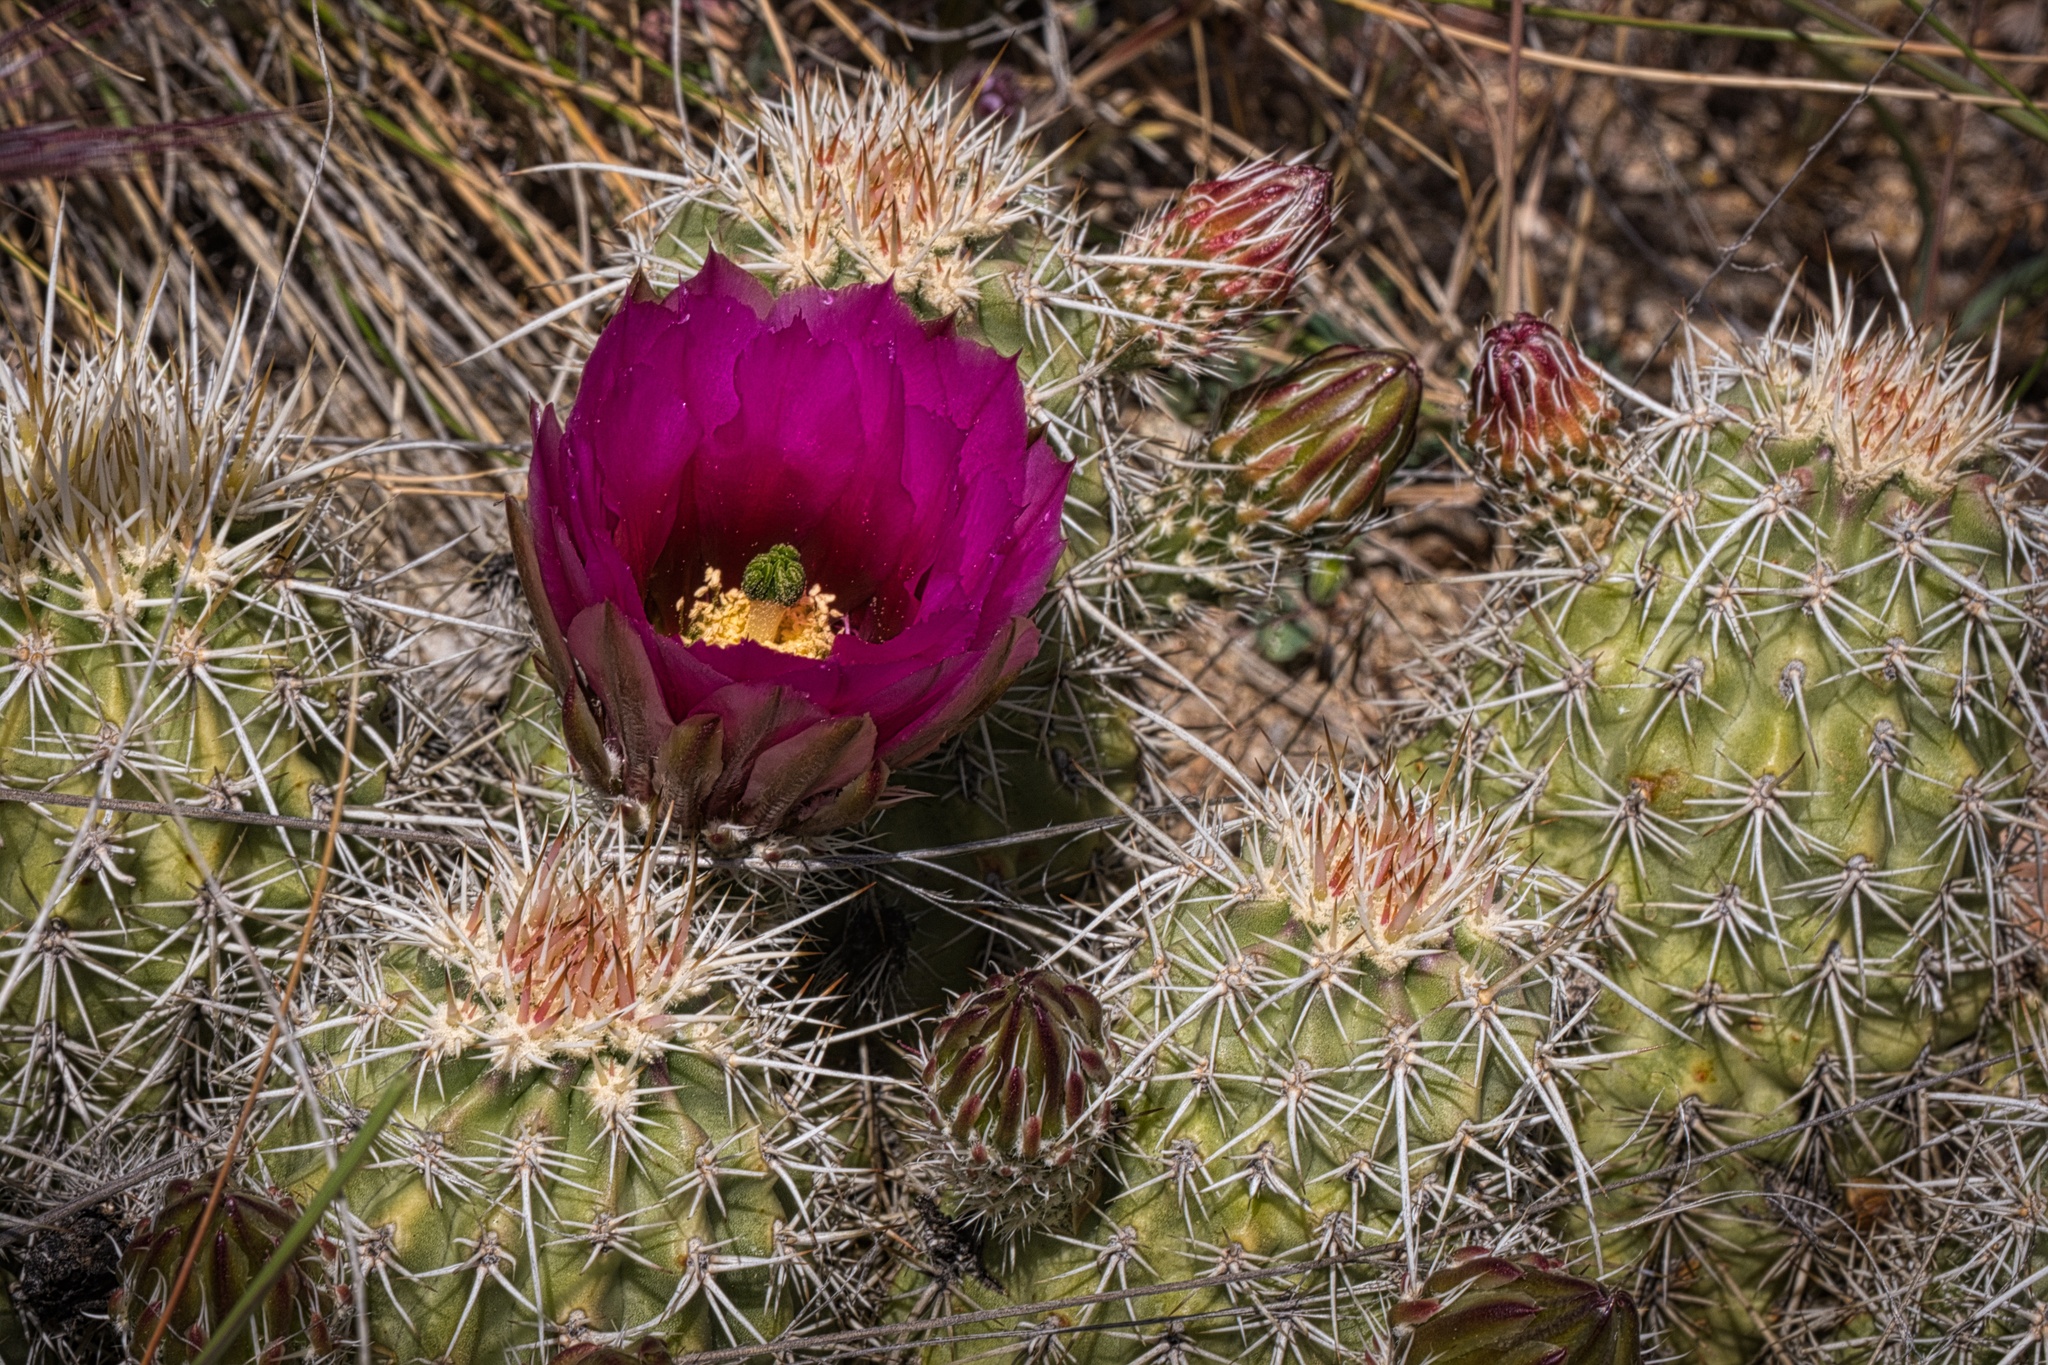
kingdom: Plantae
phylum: Tracheophyta
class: Magnoliopsida
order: Caryophyllales
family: Cactaceae
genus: Echinocereus
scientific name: Echinocereus engelmannii
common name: Engelmann's hedgehog cactus
